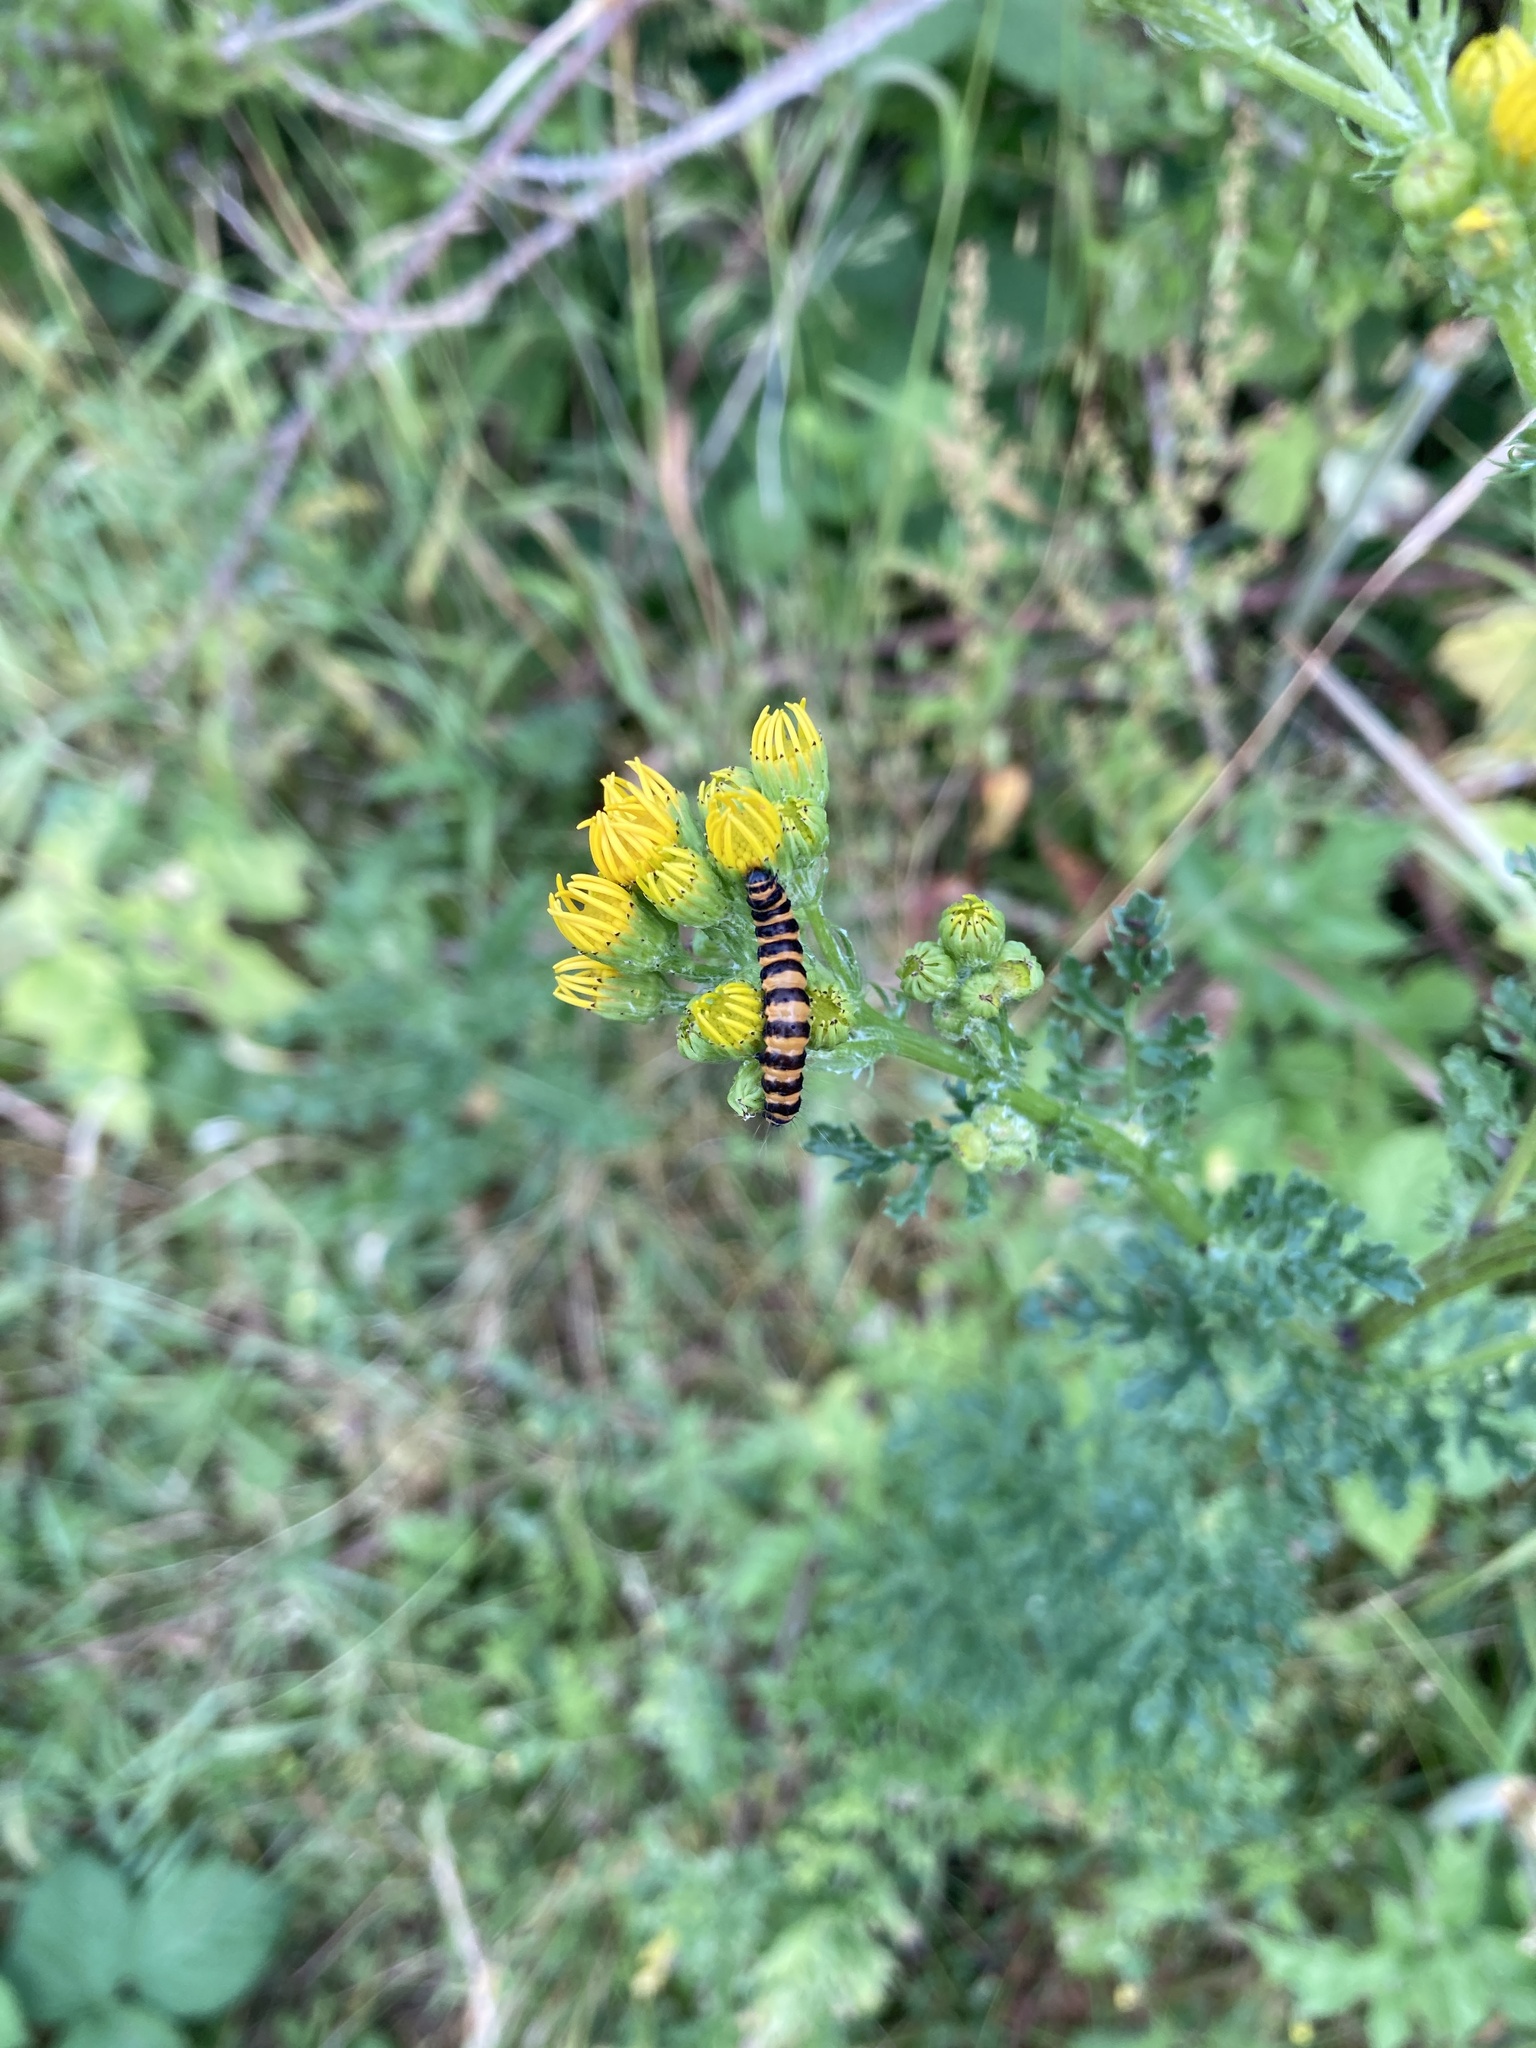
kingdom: Animalia
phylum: Arthropoda
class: Insecta
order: Lepidoptera
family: Erebidae
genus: Tyria
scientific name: Tyria jacobaeae
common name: Cinnabar
